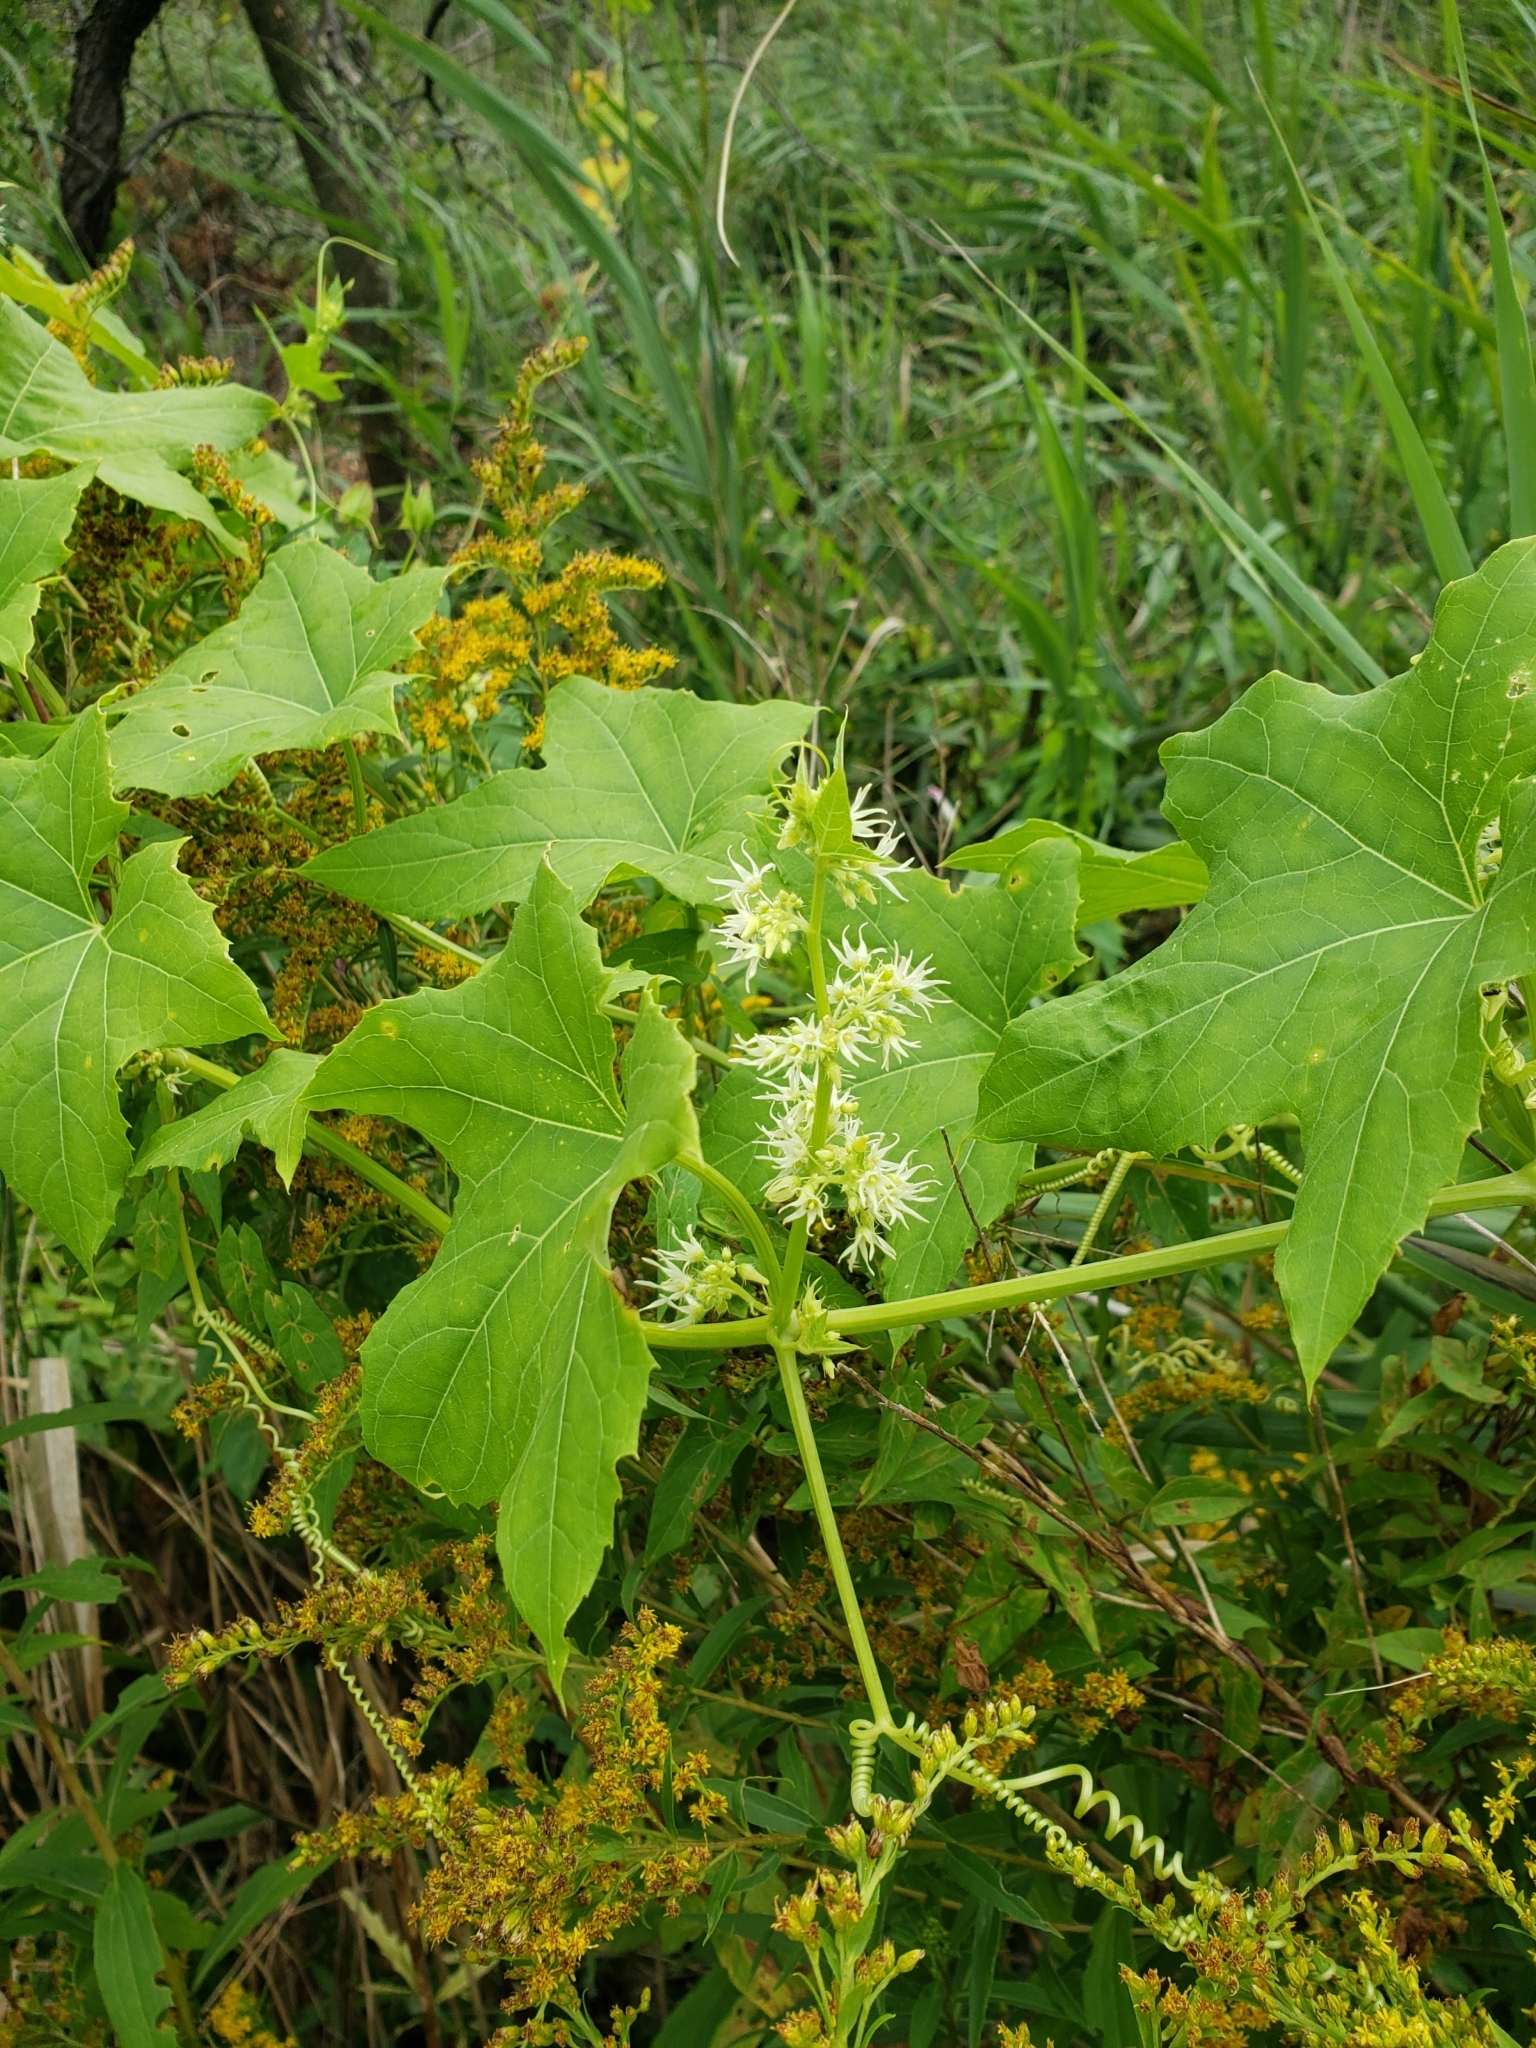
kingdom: Plantae
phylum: Tracheophyta
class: Magnoliopsida
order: Cucurbitales
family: Cucurbitaceae
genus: Echinocystis
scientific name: Echinocystis lobata
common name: Wild cucumber
